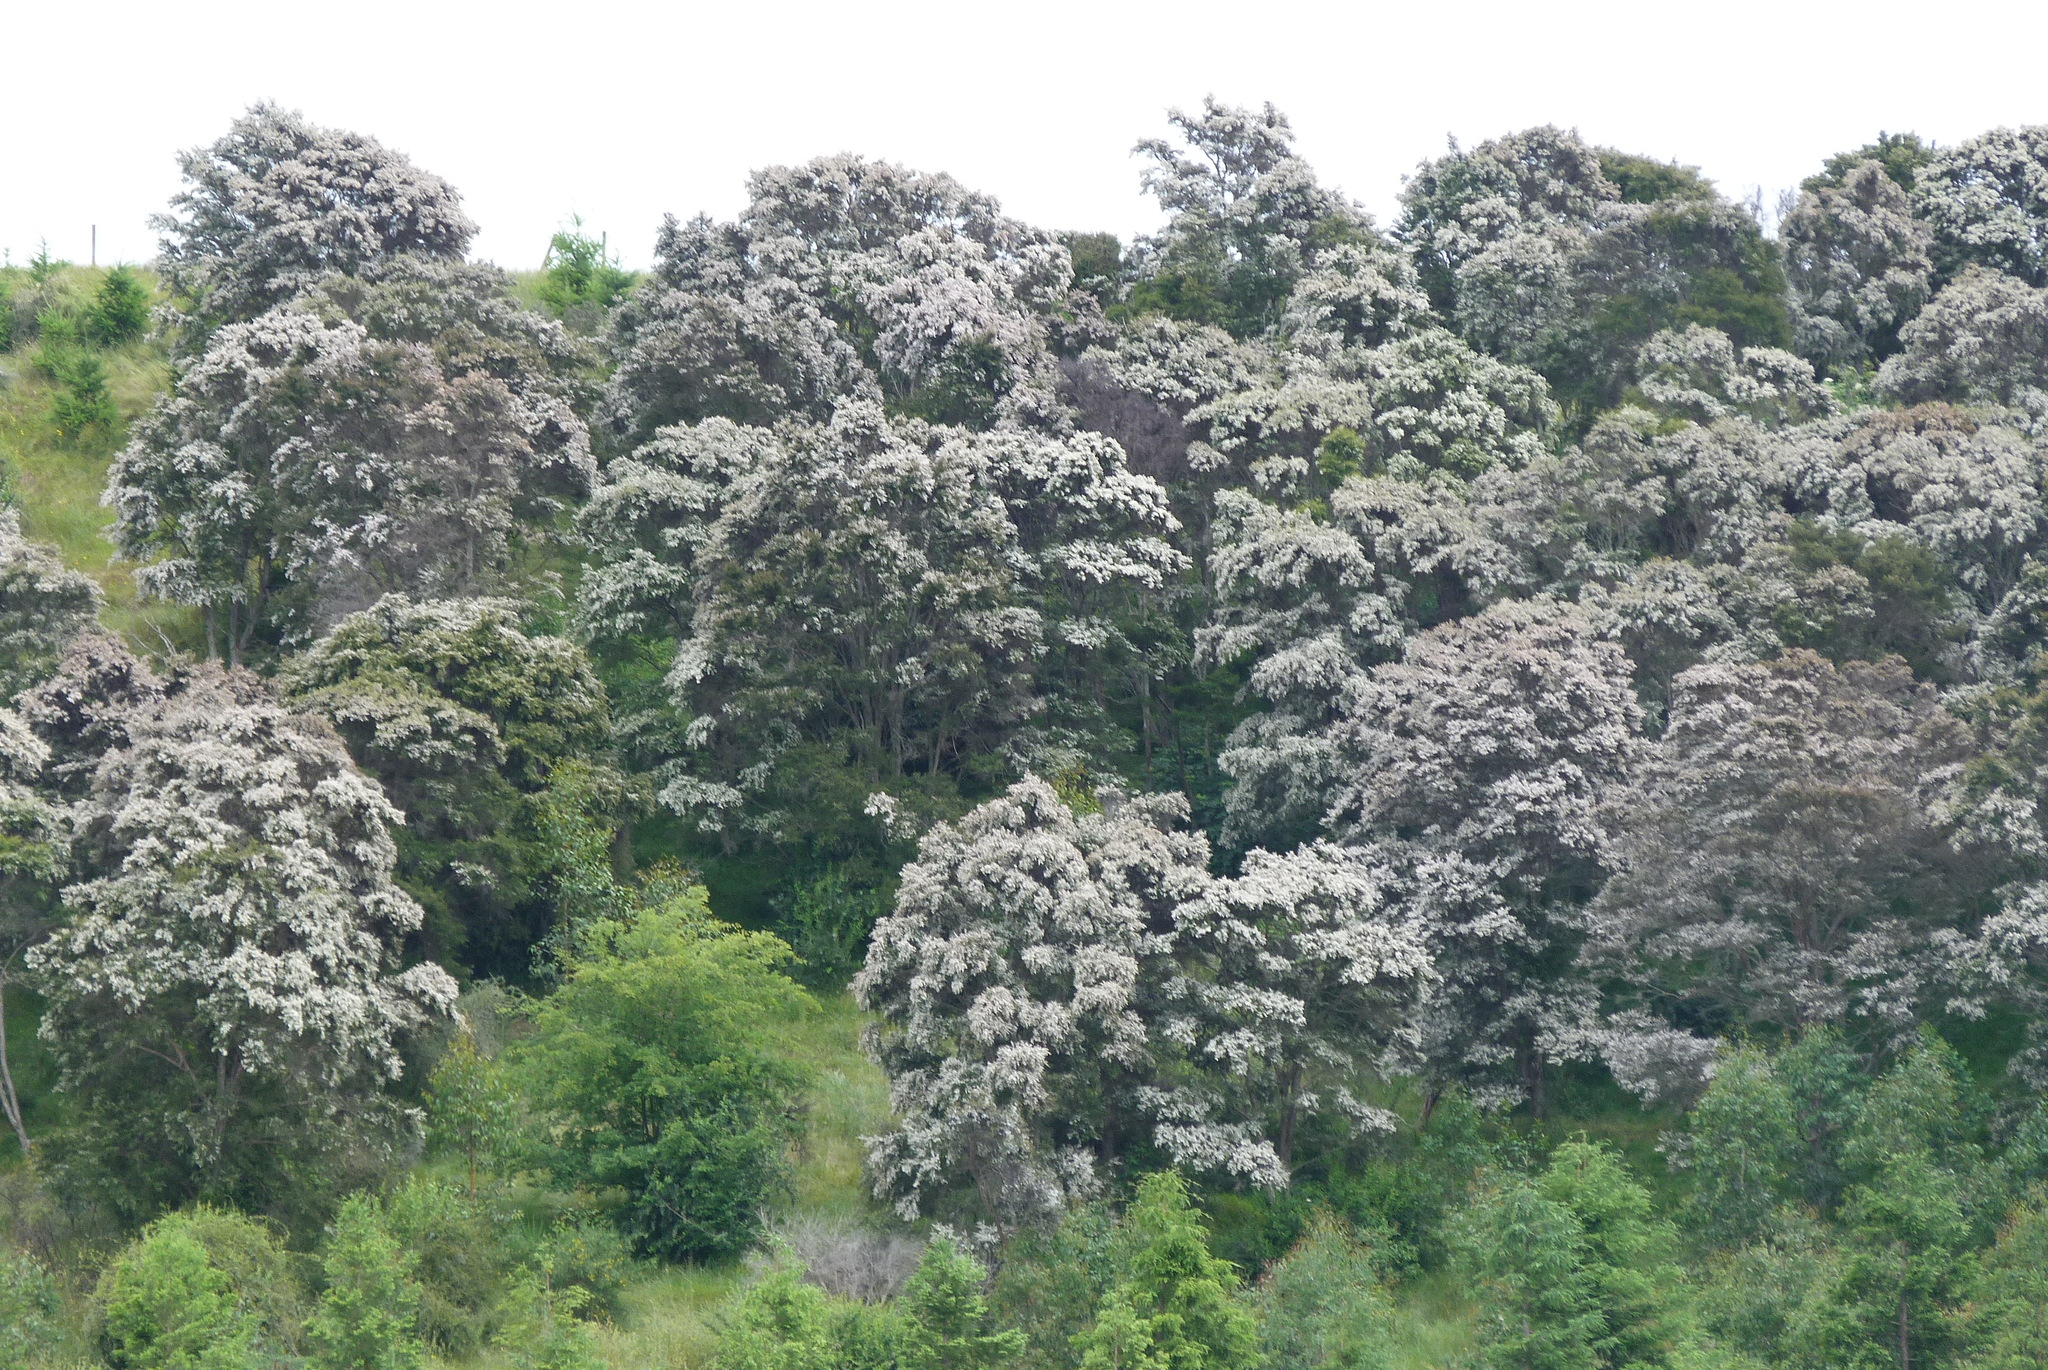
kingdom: Plantae
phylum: Tracheophyta
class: Magnoliopsida
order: Myrtales
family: Myrtaceae
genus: Kunzea
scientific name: Kunzea robusta
